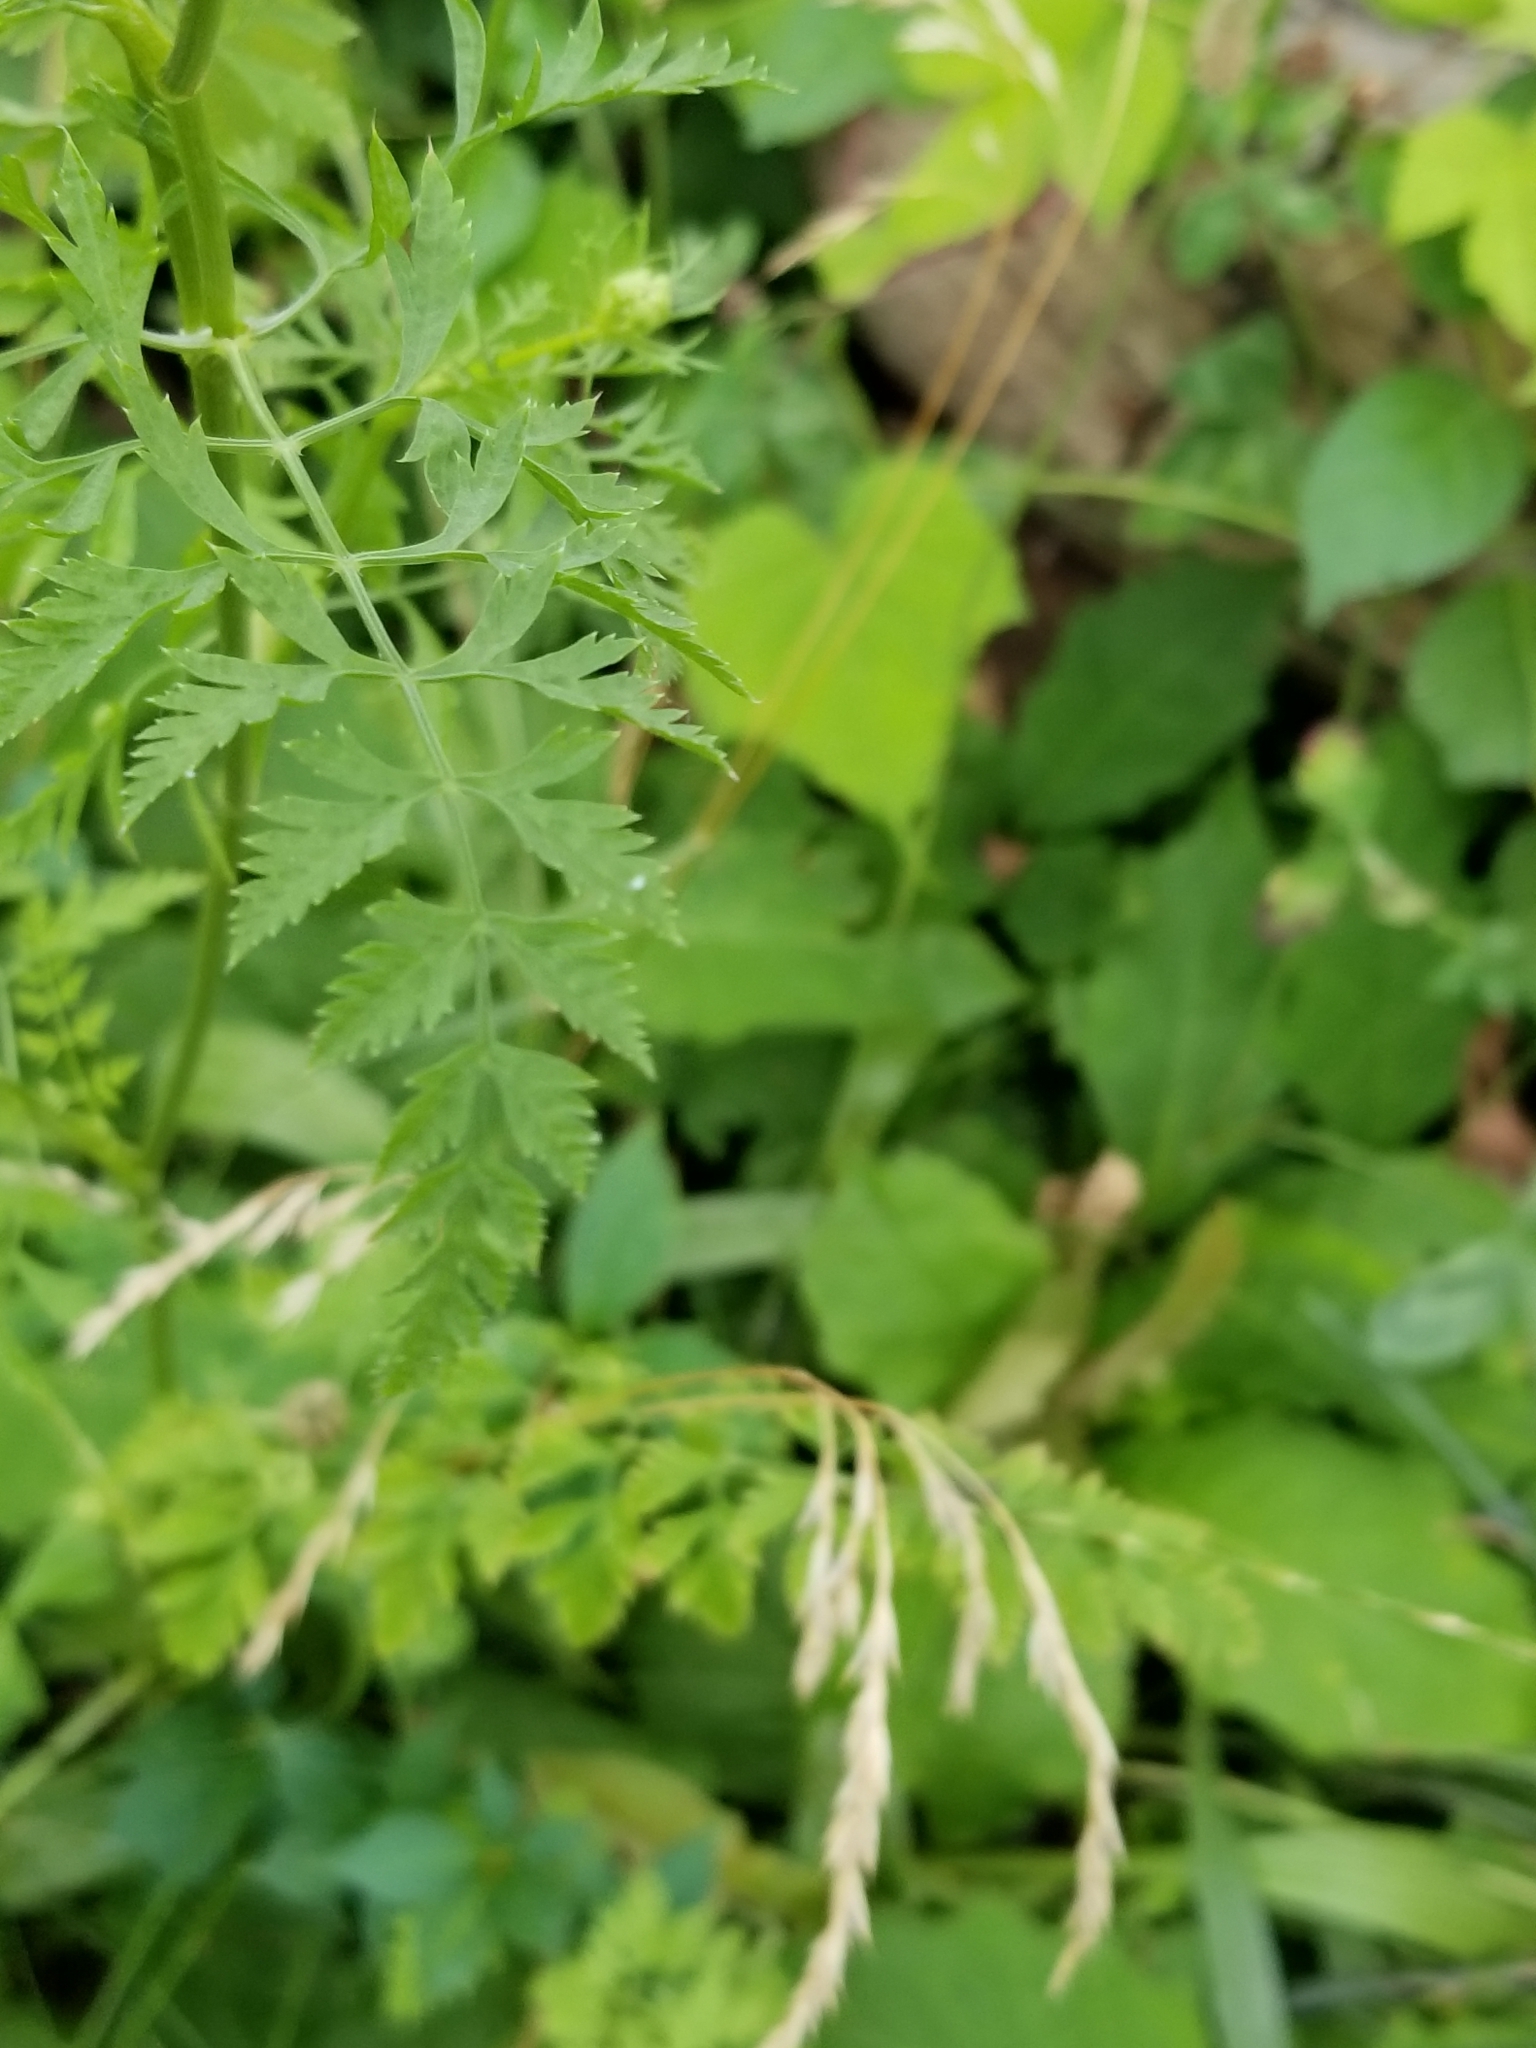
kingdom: Plantae
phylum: Tracheophyta
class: Magnoliopsida
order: Apiales
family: Apiaceae
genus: Daucus
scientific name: Daucus carota
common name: Wild carrot
